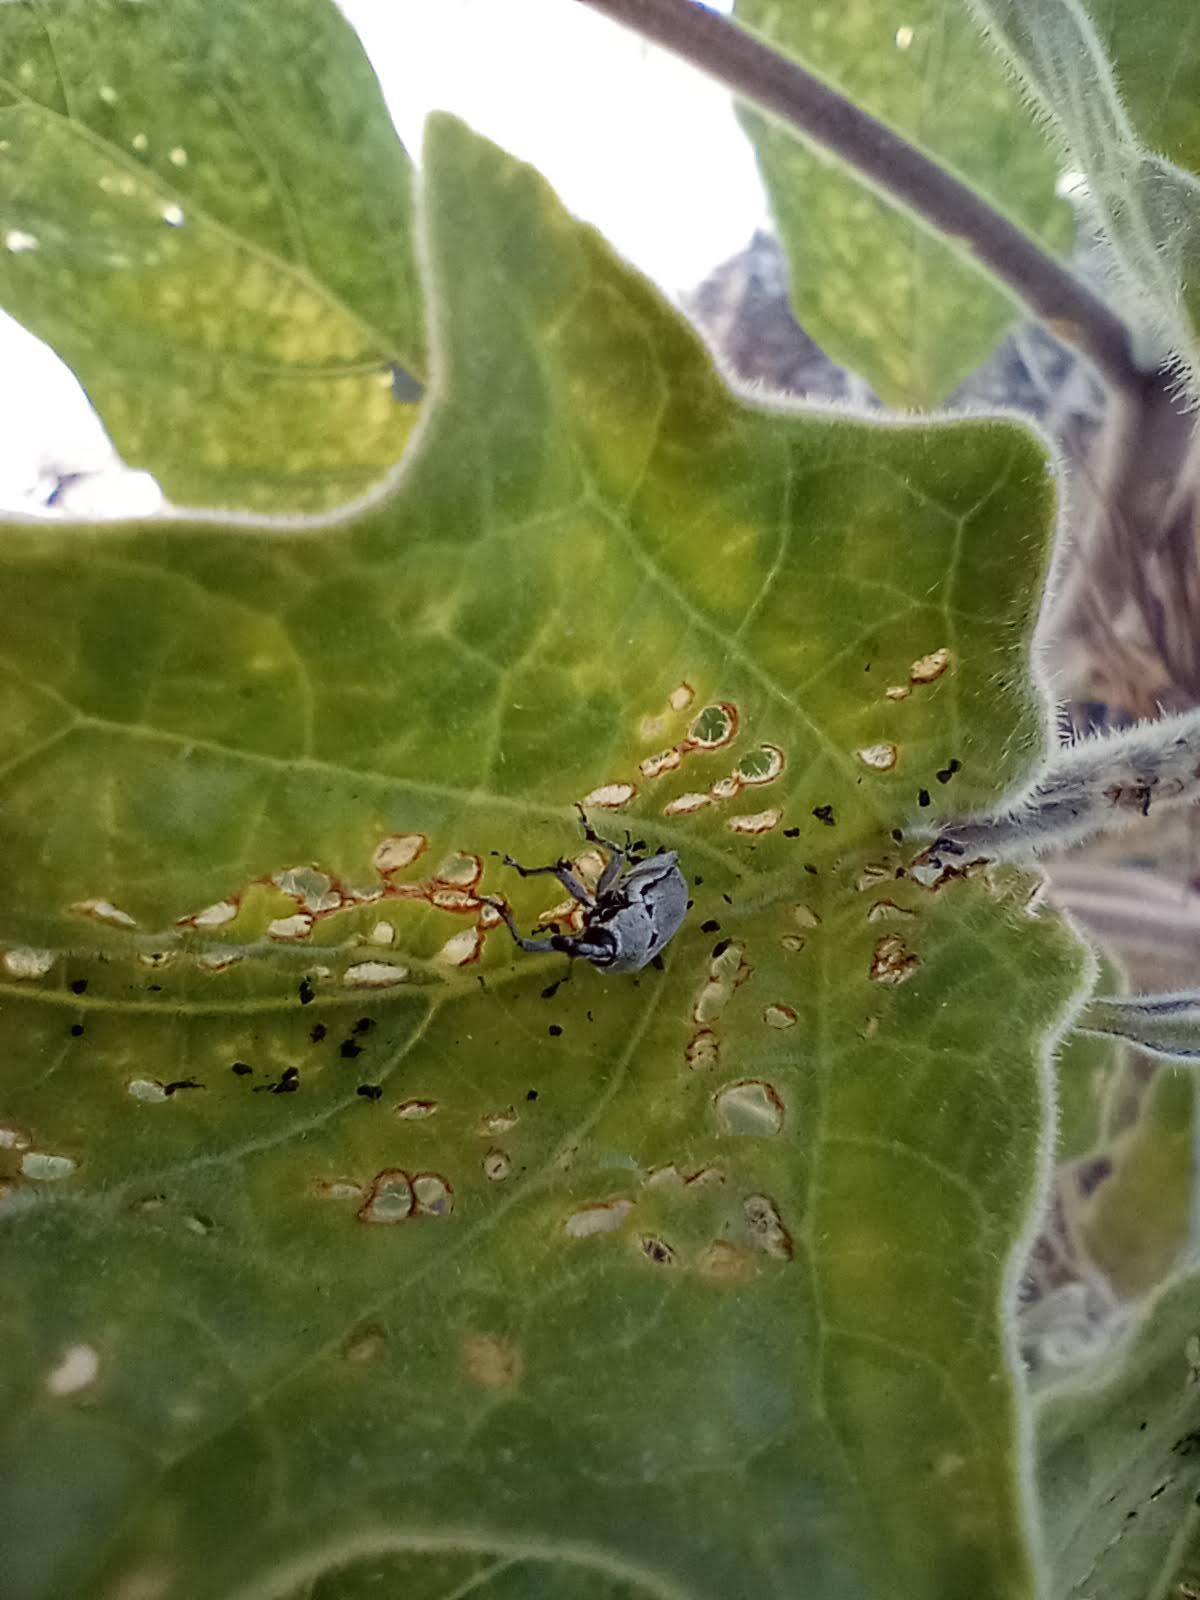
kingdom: Animalia
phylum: Arthropoda
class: Insecta
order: Coleoptera
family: Curculionidae
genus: Trichobaris
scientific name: Trichobaris compacta
